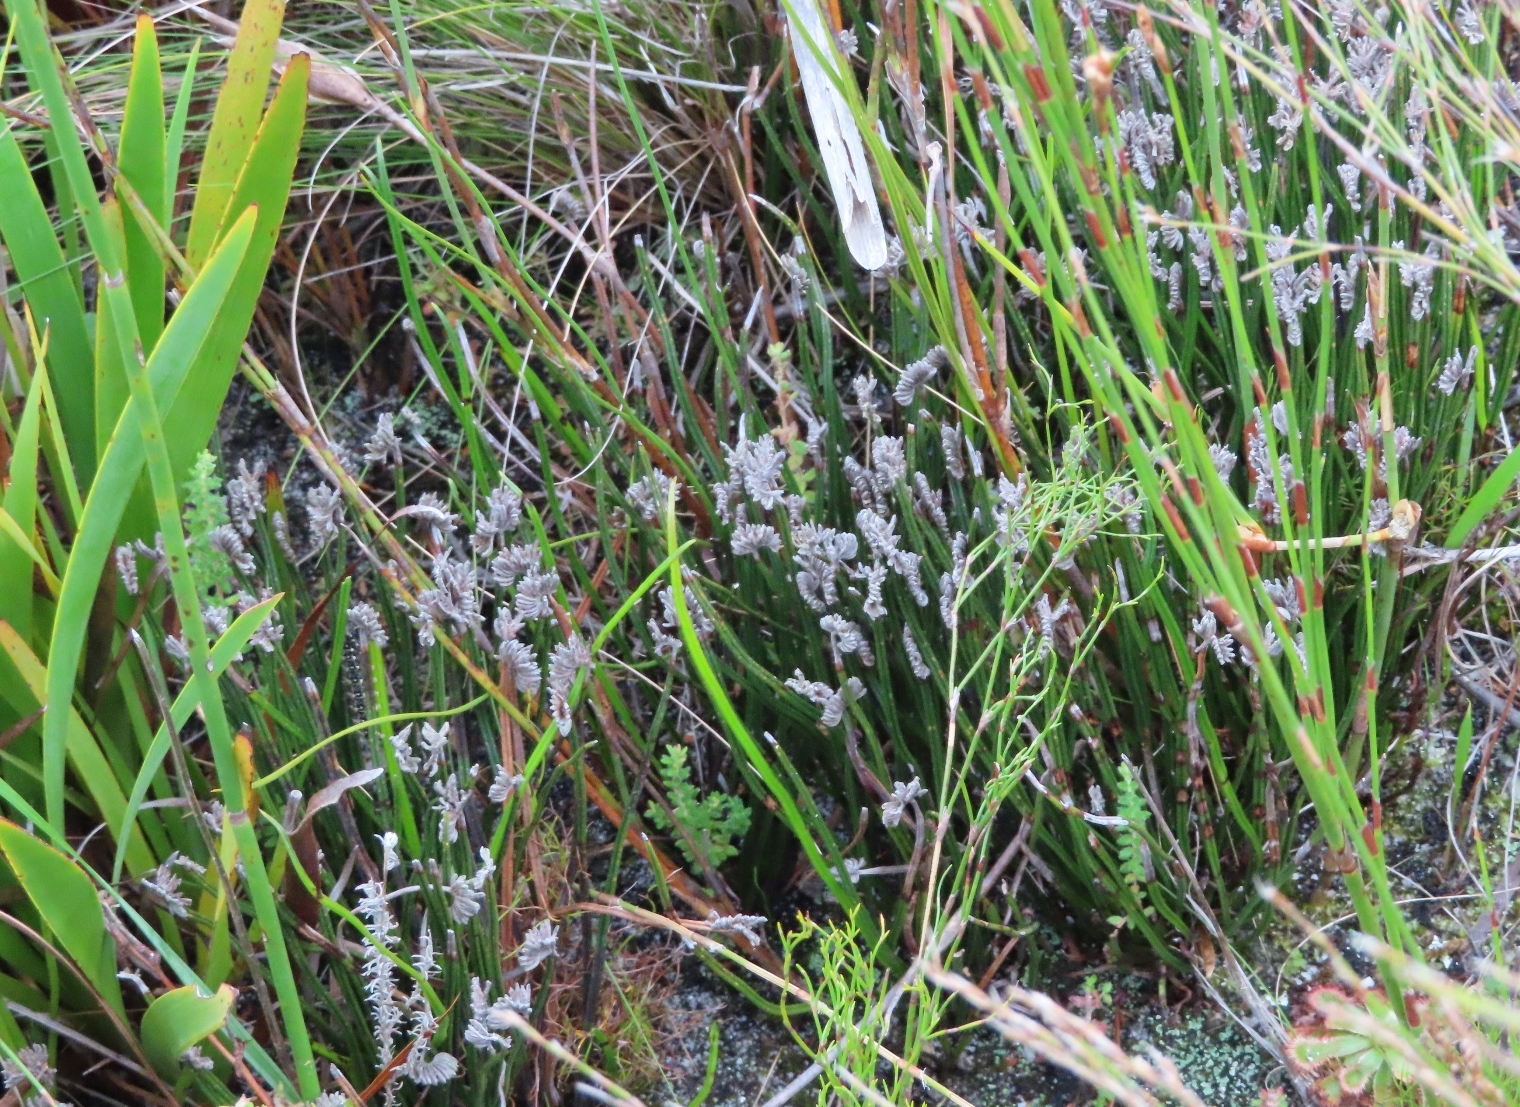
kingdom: Plantae
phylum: Tracheophyta
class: Polypodiopsida
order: Schizaeales
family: Schizaeaceae
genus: Schizaea
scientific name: Schizaea pectinata
